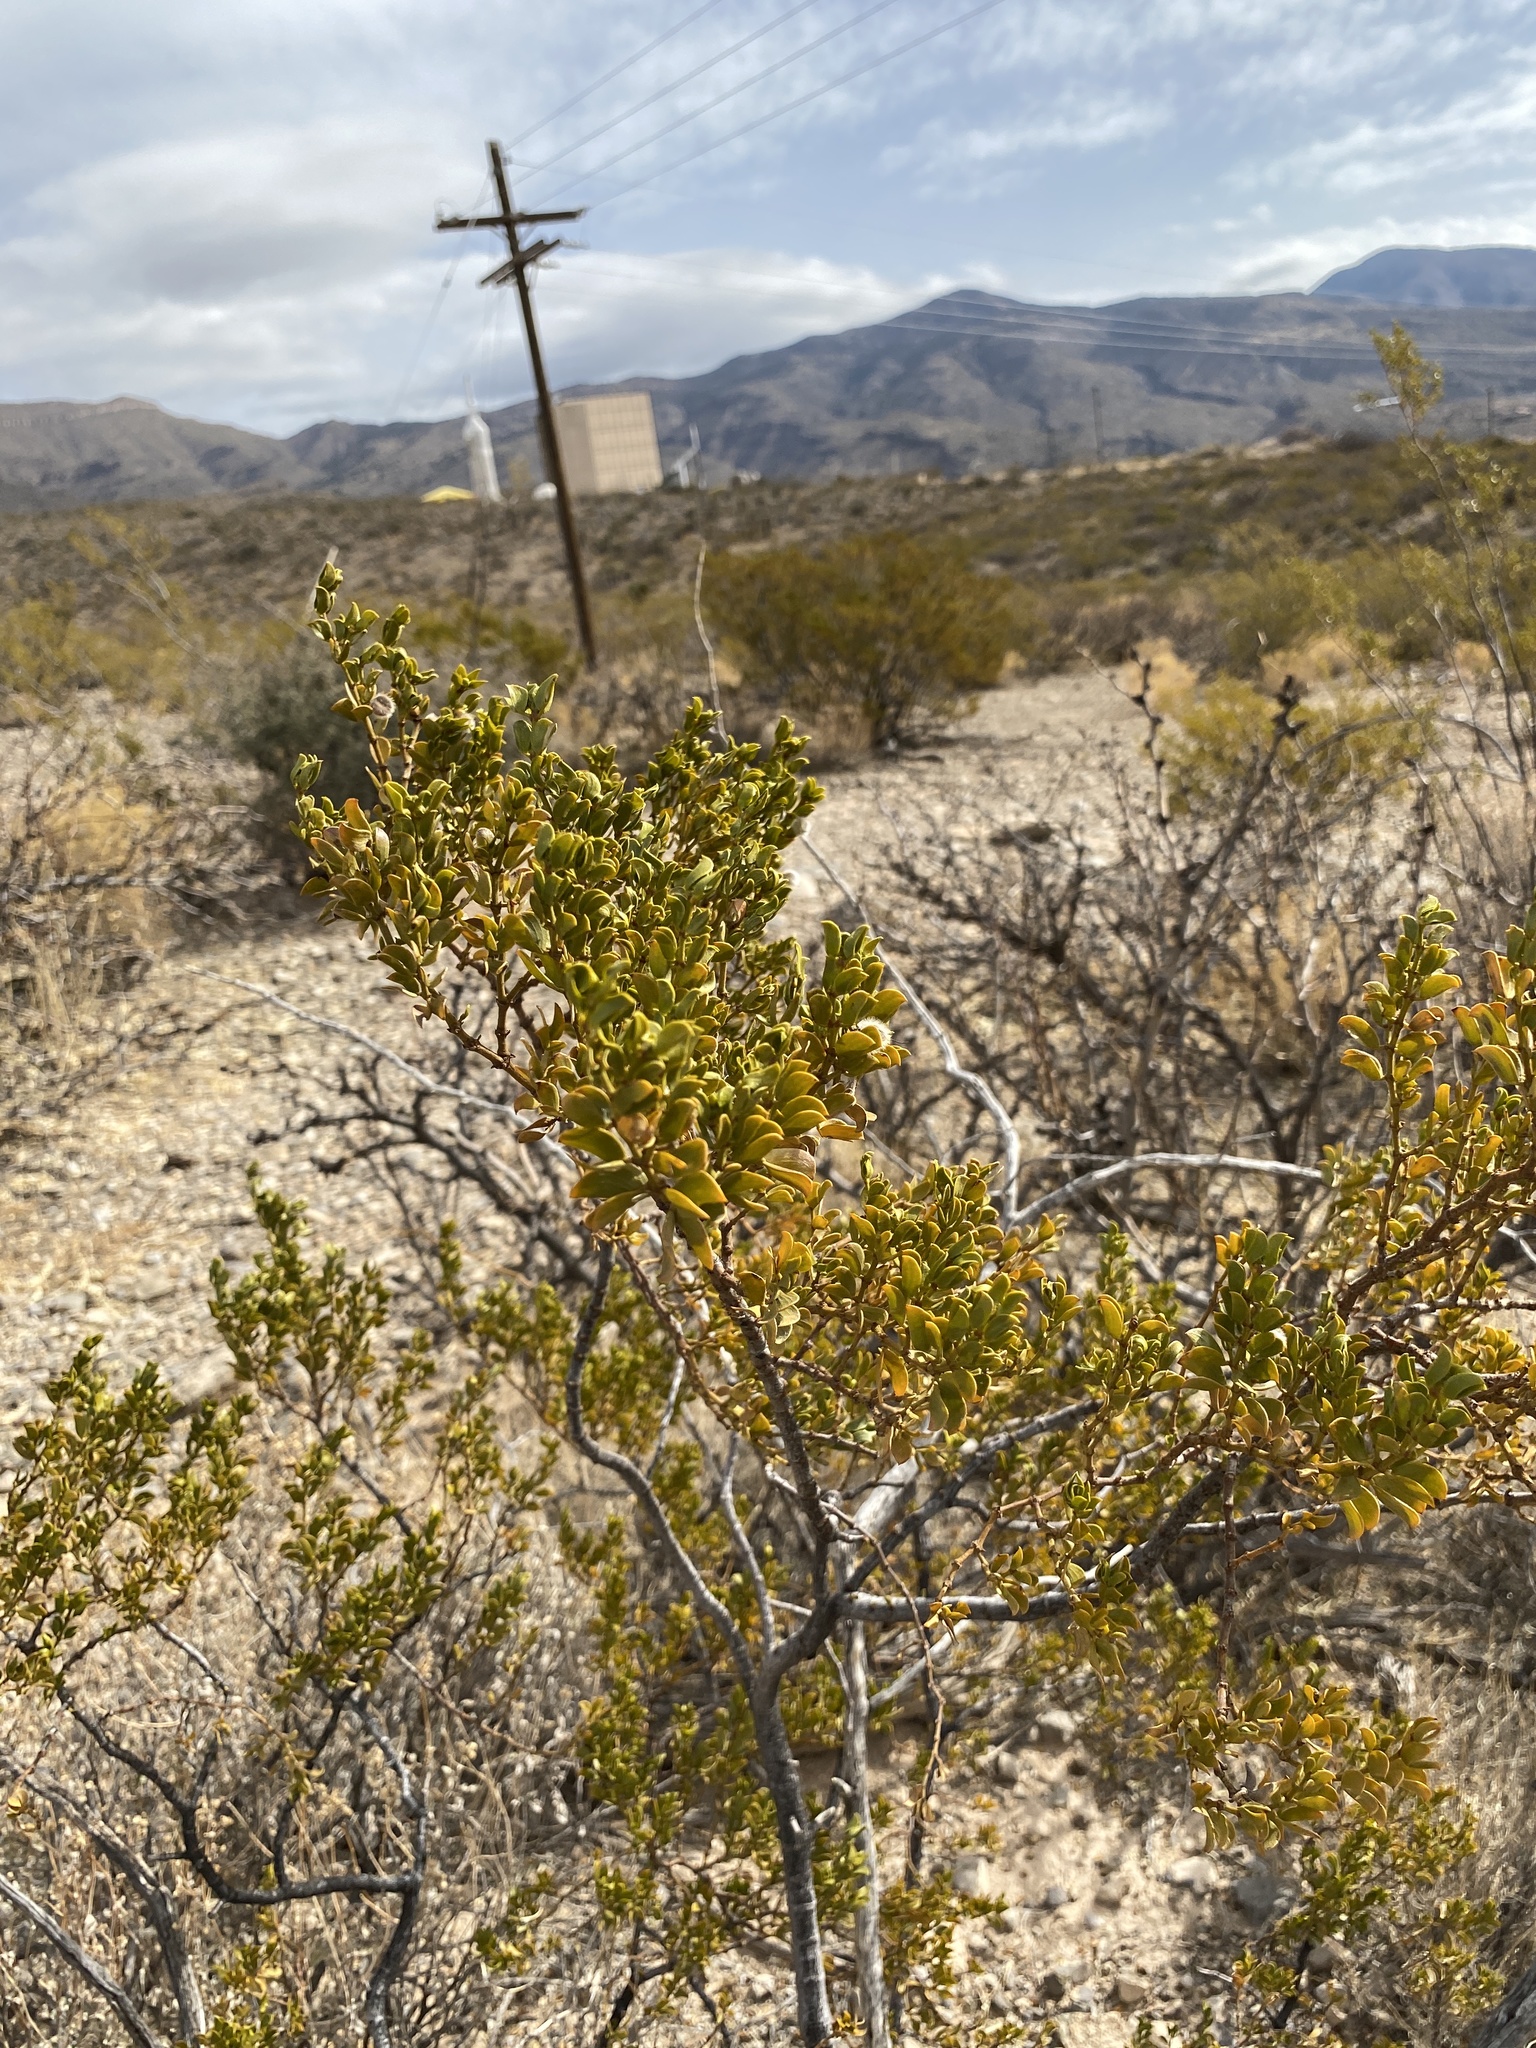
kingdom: Plantae
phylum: Tracheophyta
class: Magnoliopsida
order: Zygophyllales
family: Zygophyllaceae
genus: Larrea
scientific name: Larrea tridentata
